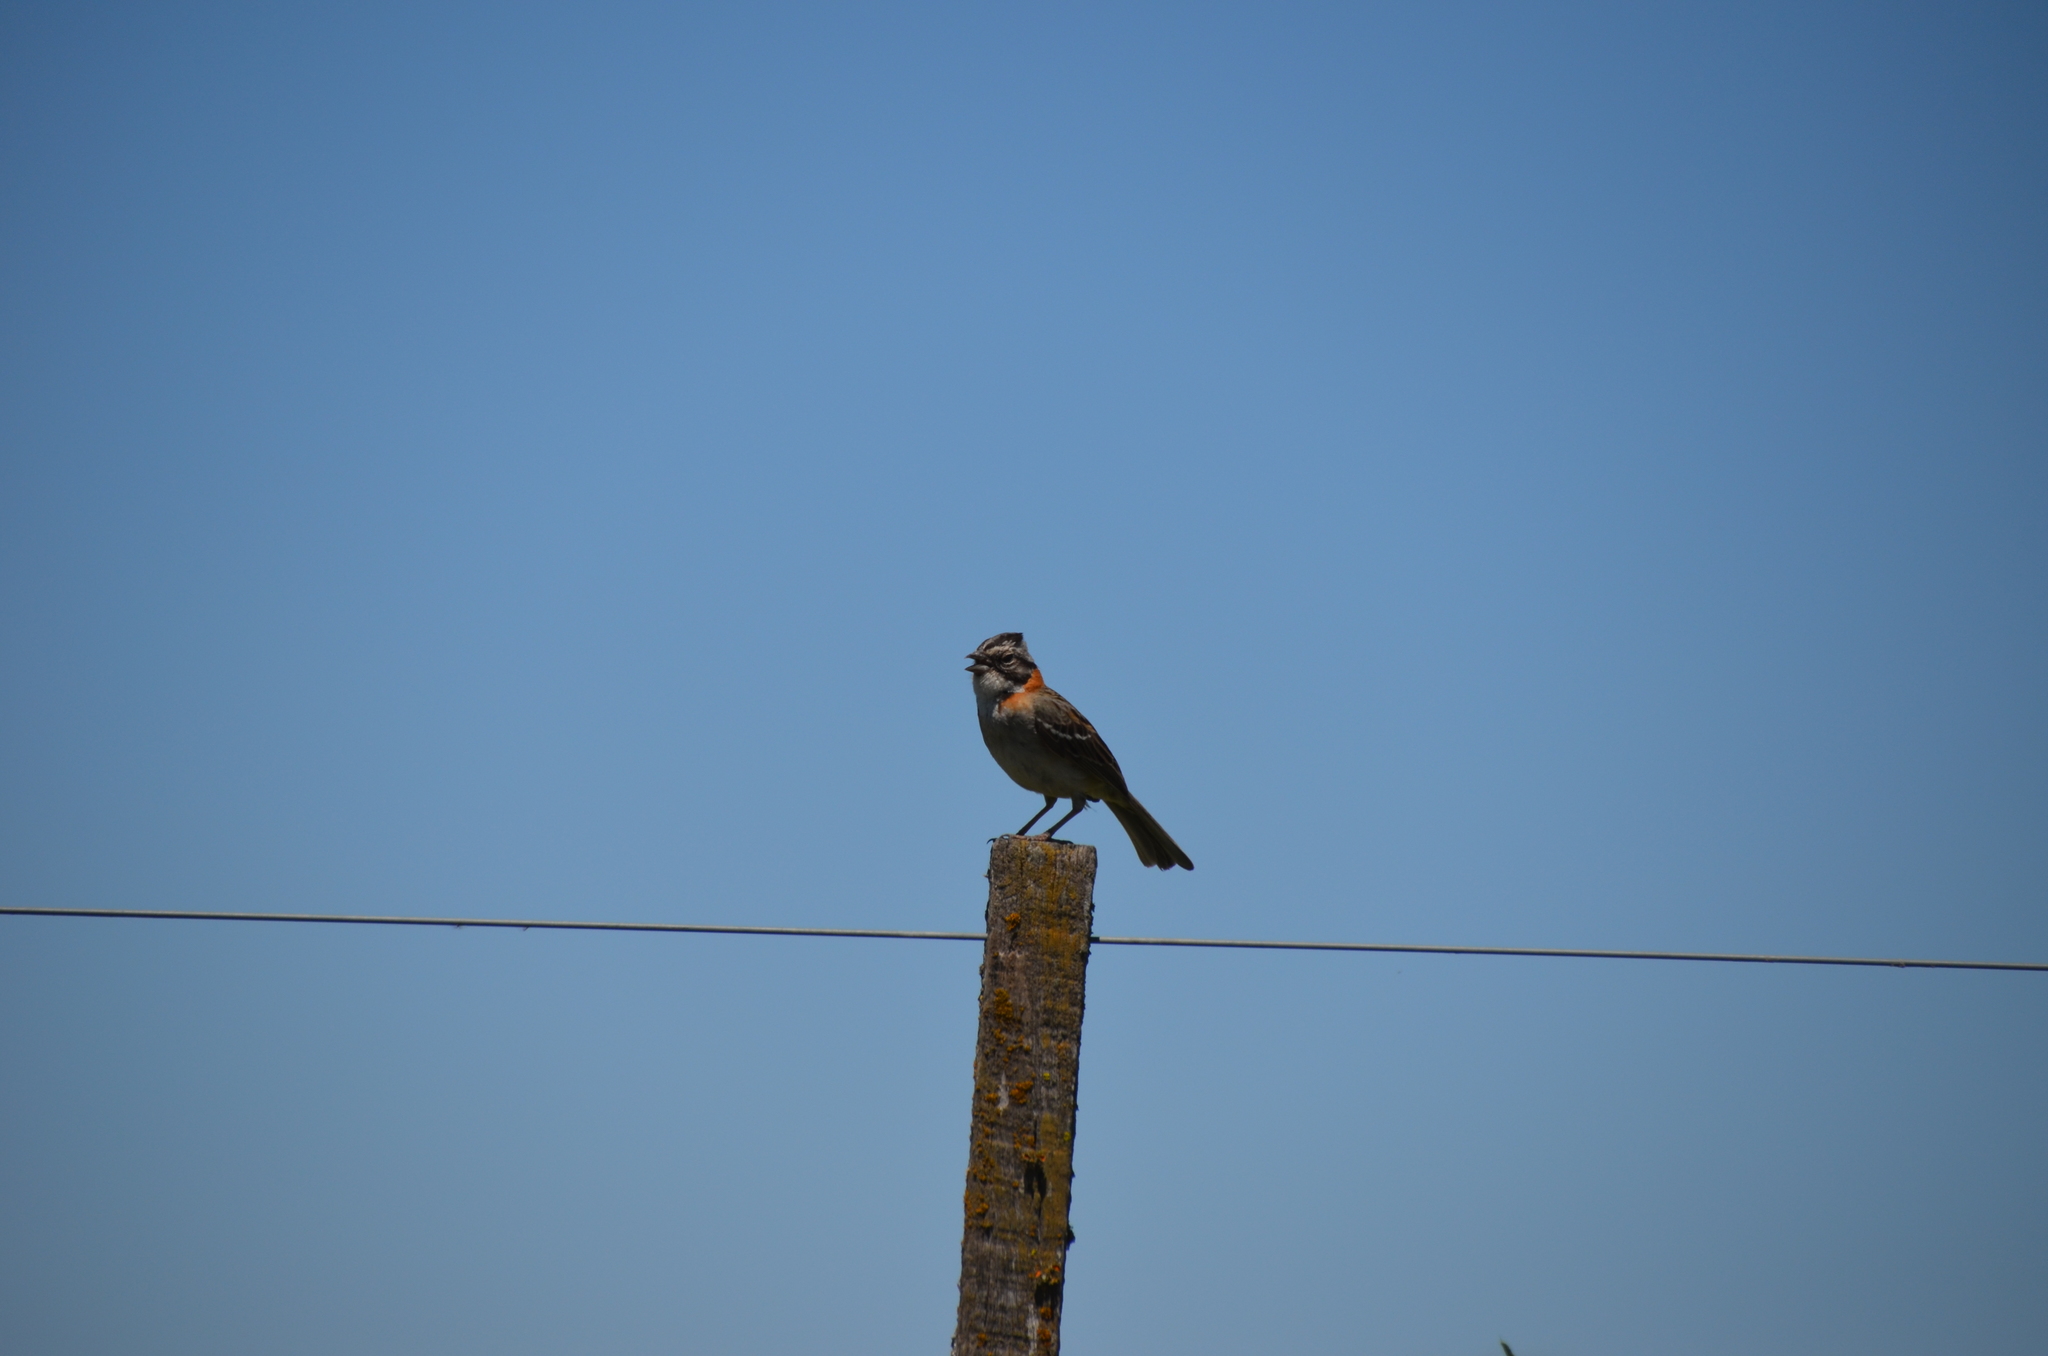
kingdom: Animalia
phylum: Chordata
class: Aves
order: Passeriformes
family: Passerellidae
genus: Zonotrichia
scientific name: Zonotrichia capensis
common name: Rufous-collared sparrow
